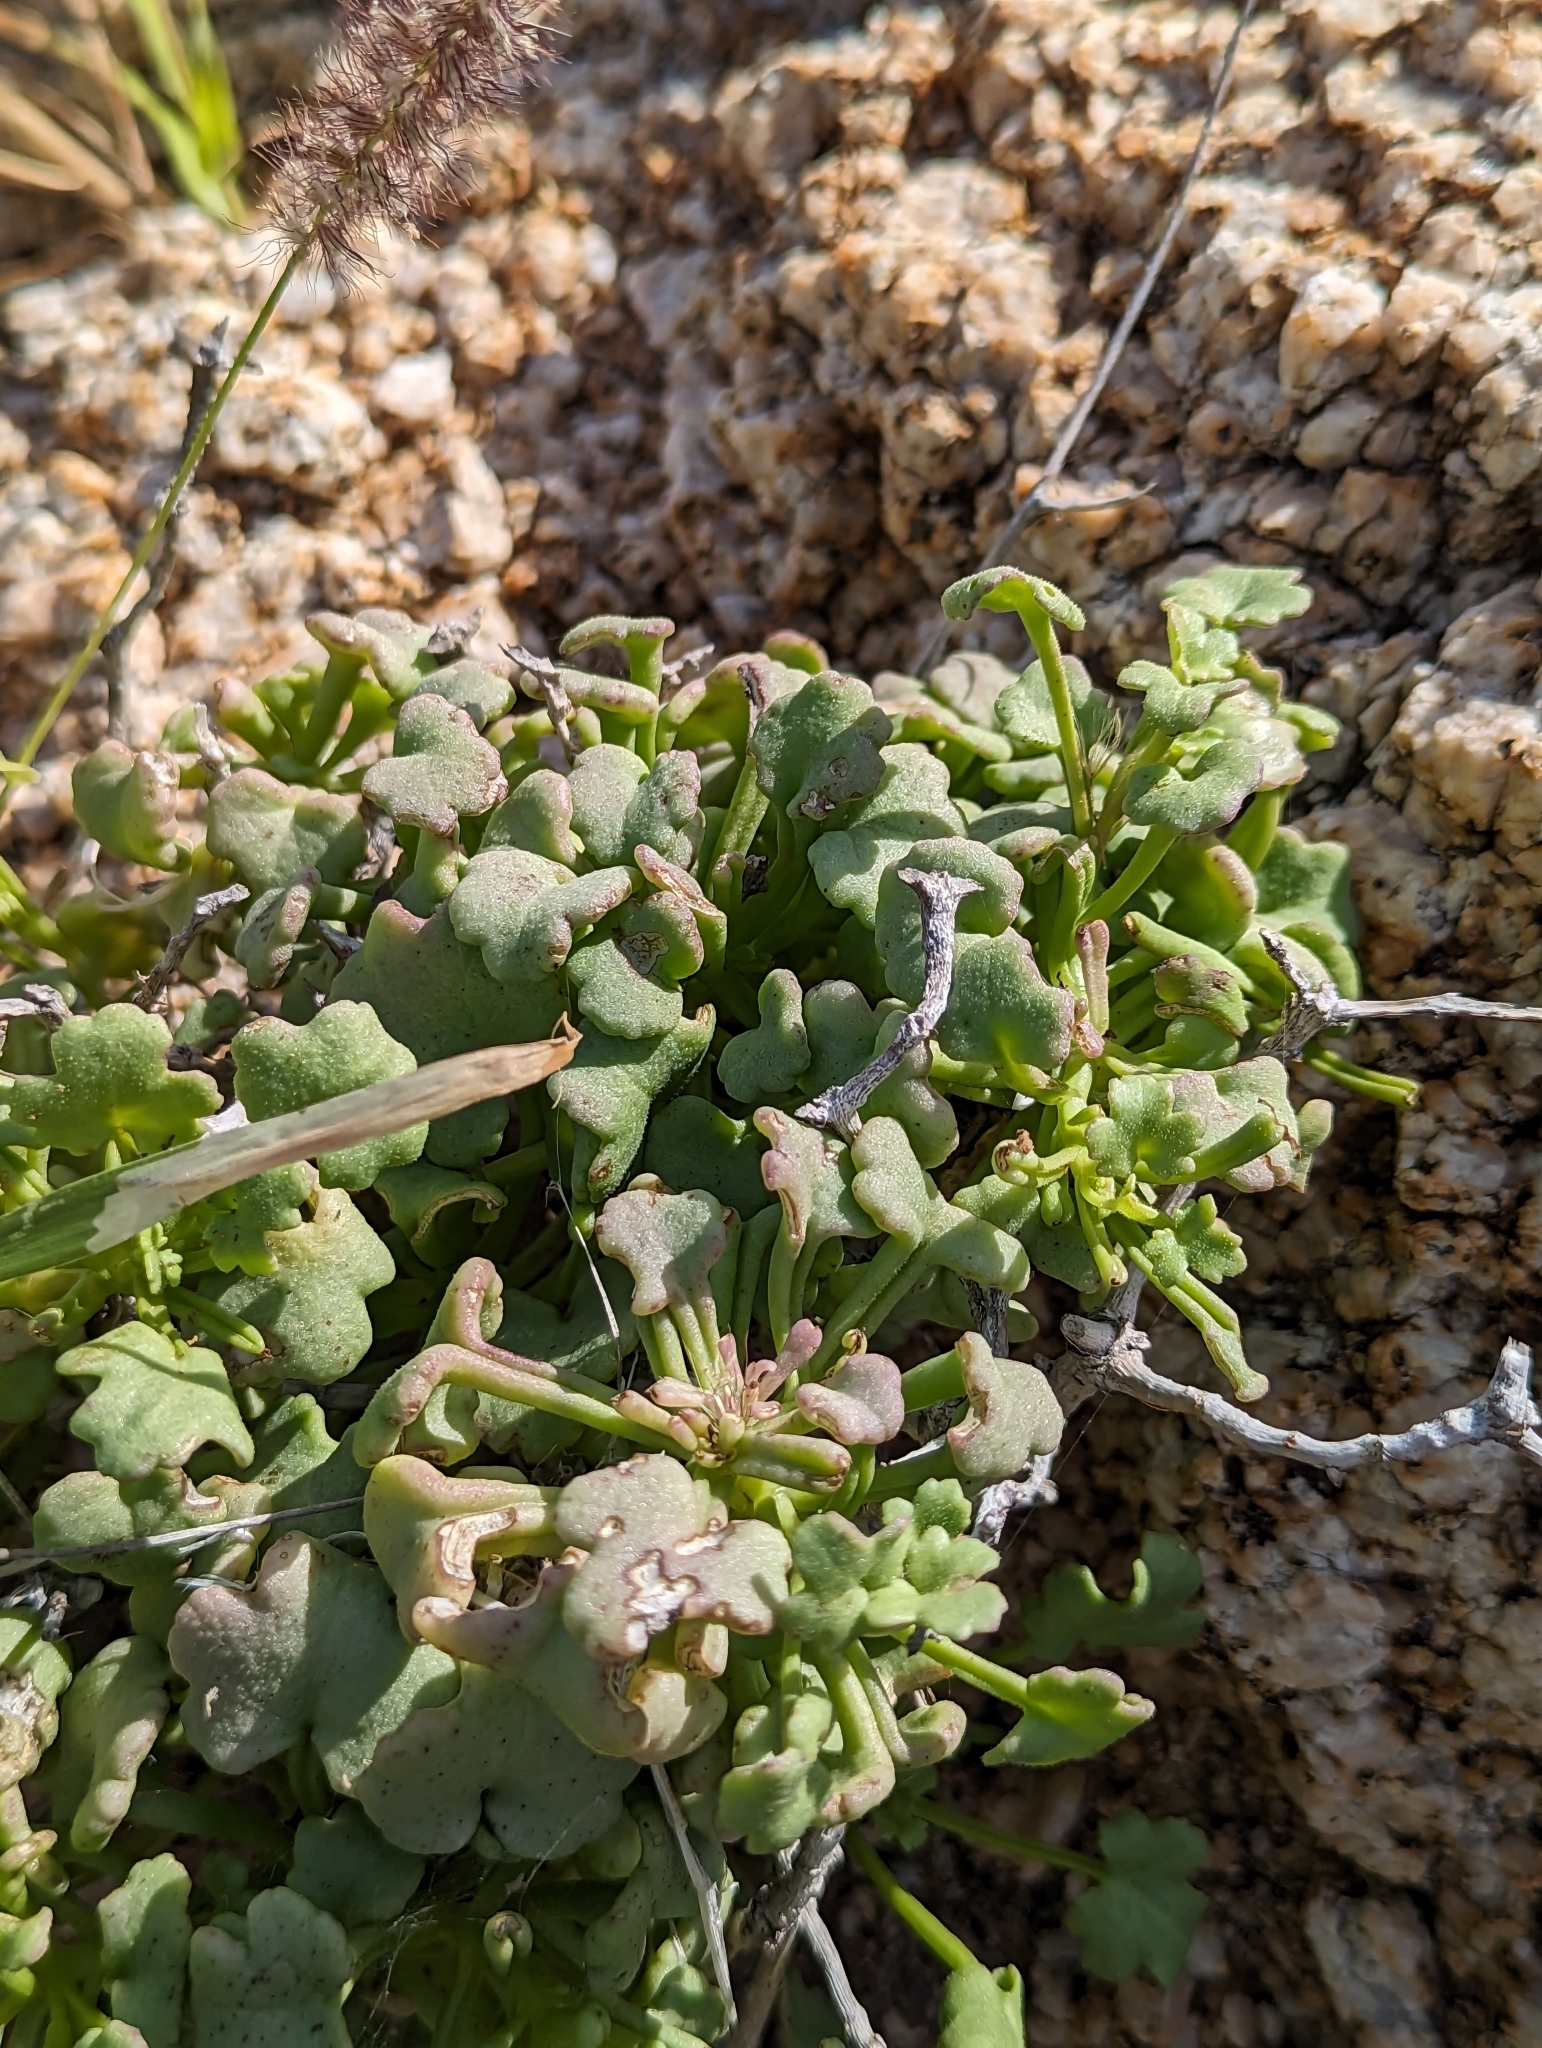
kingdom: Plantae
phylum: Tracheophyta
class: Magnoliopsida
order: Asterales
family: Asteraceae
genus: Hofmeisteria
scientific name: Hofmeisteria fasciculata
